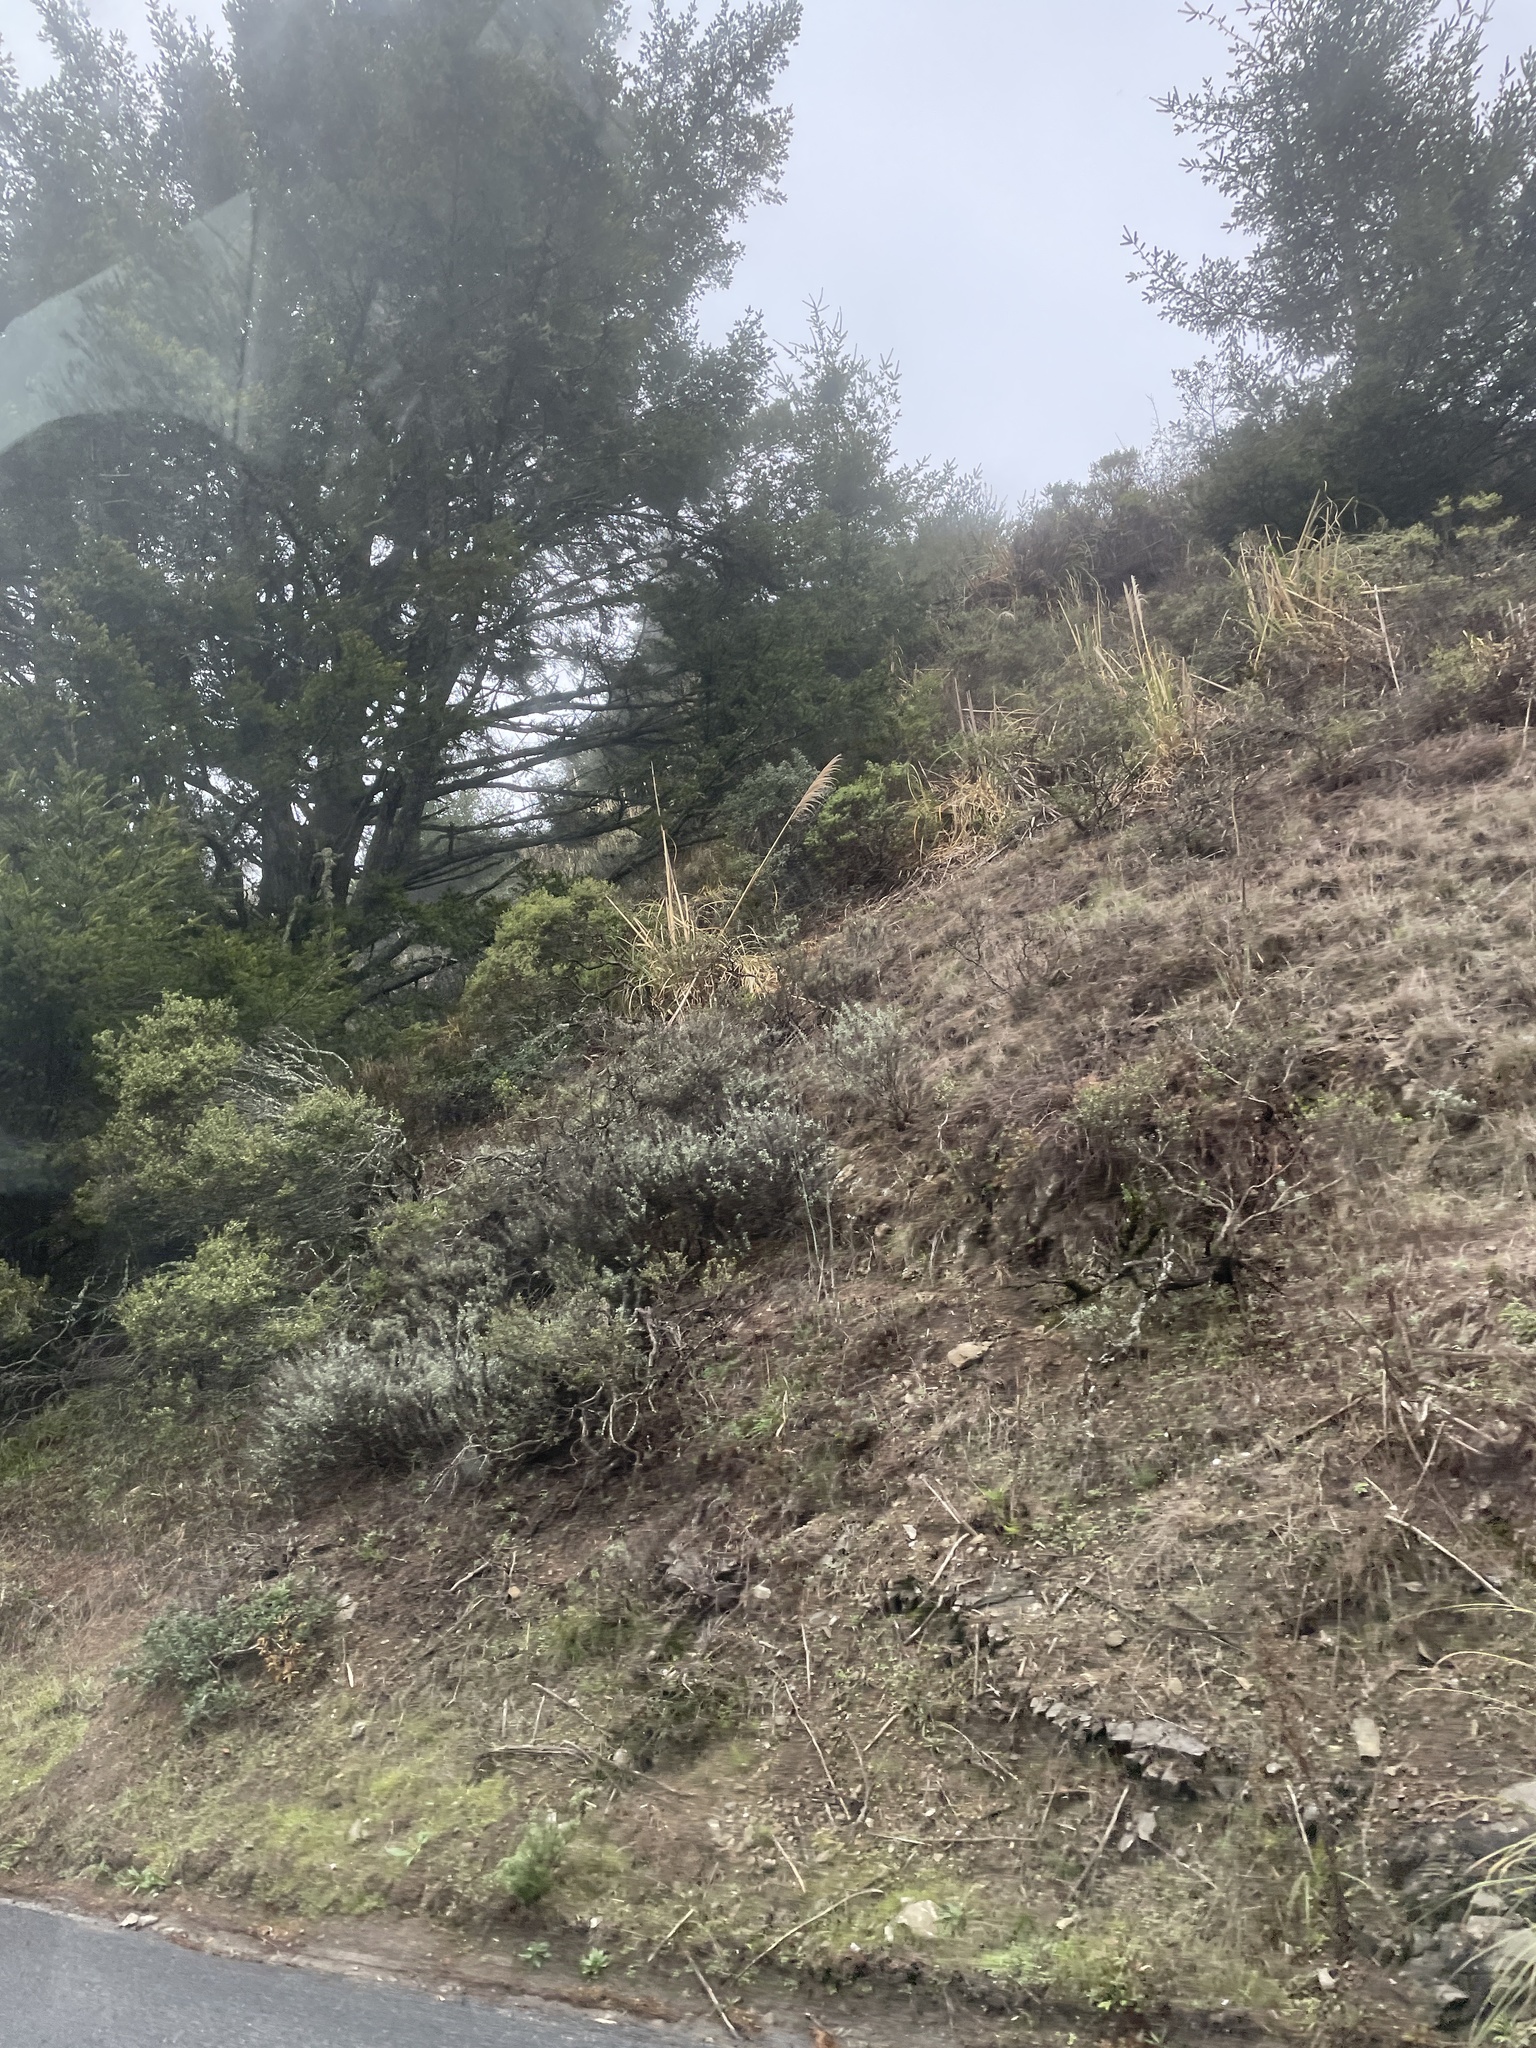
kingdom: Plantae
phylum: Tracheophyta
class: Liliopsida
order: Poales
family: Poaceae
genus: Cortaderia
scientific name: Cortaderia selloana
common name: Uruguayan pampas grass
